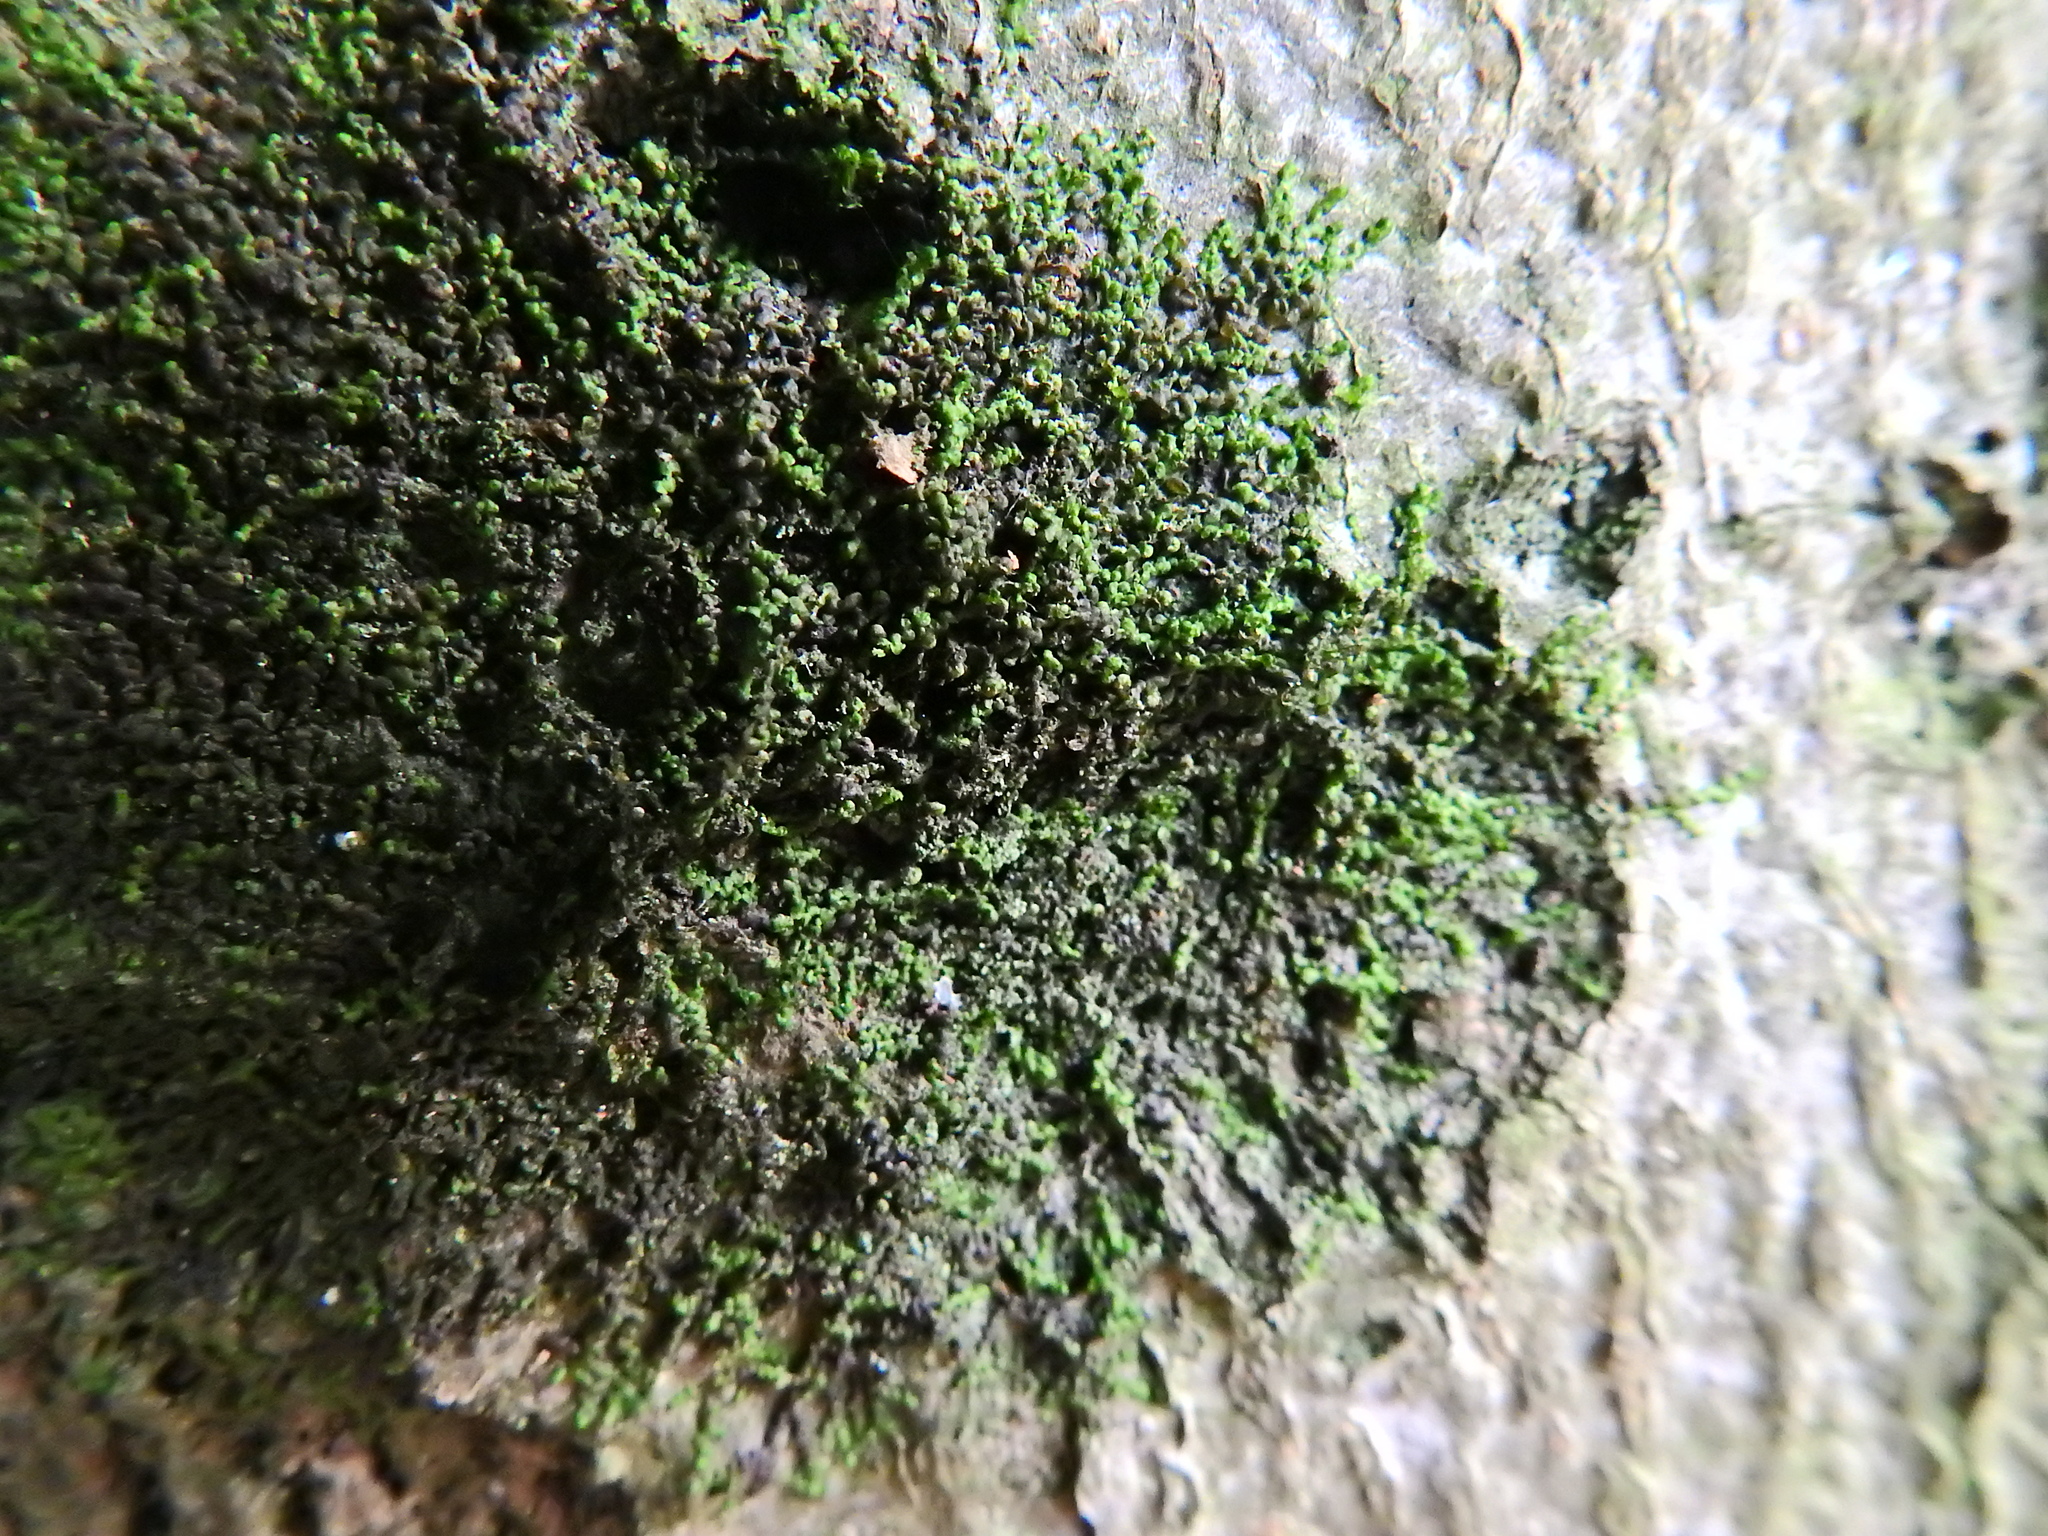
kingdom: Plantae
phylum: Marchantiophyta
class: Jungermanniopsida
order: Porellales
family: Frullaniaceae
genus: Frullania
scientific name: Frullania dilatata
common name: Dilated scalewort
